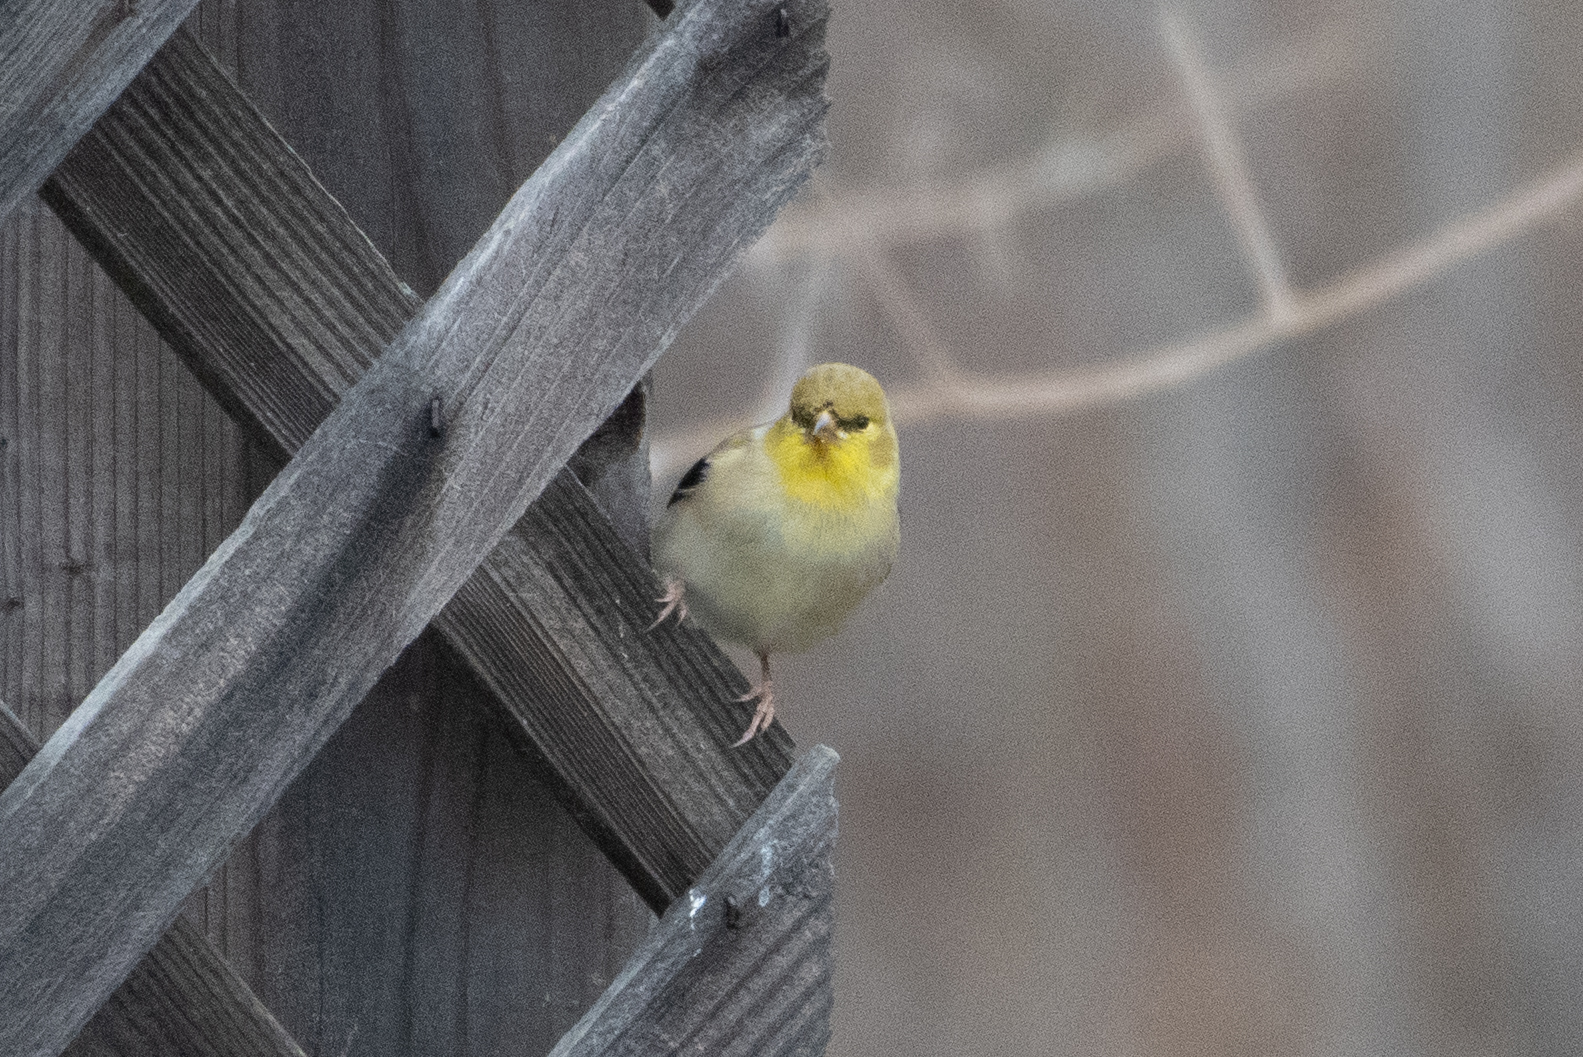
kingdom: Animalia
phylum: Chordata
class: Aves
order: Passeriformes
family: Fringillidae
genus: Spinus
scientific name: Spinus tristis
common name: American goldfinch
